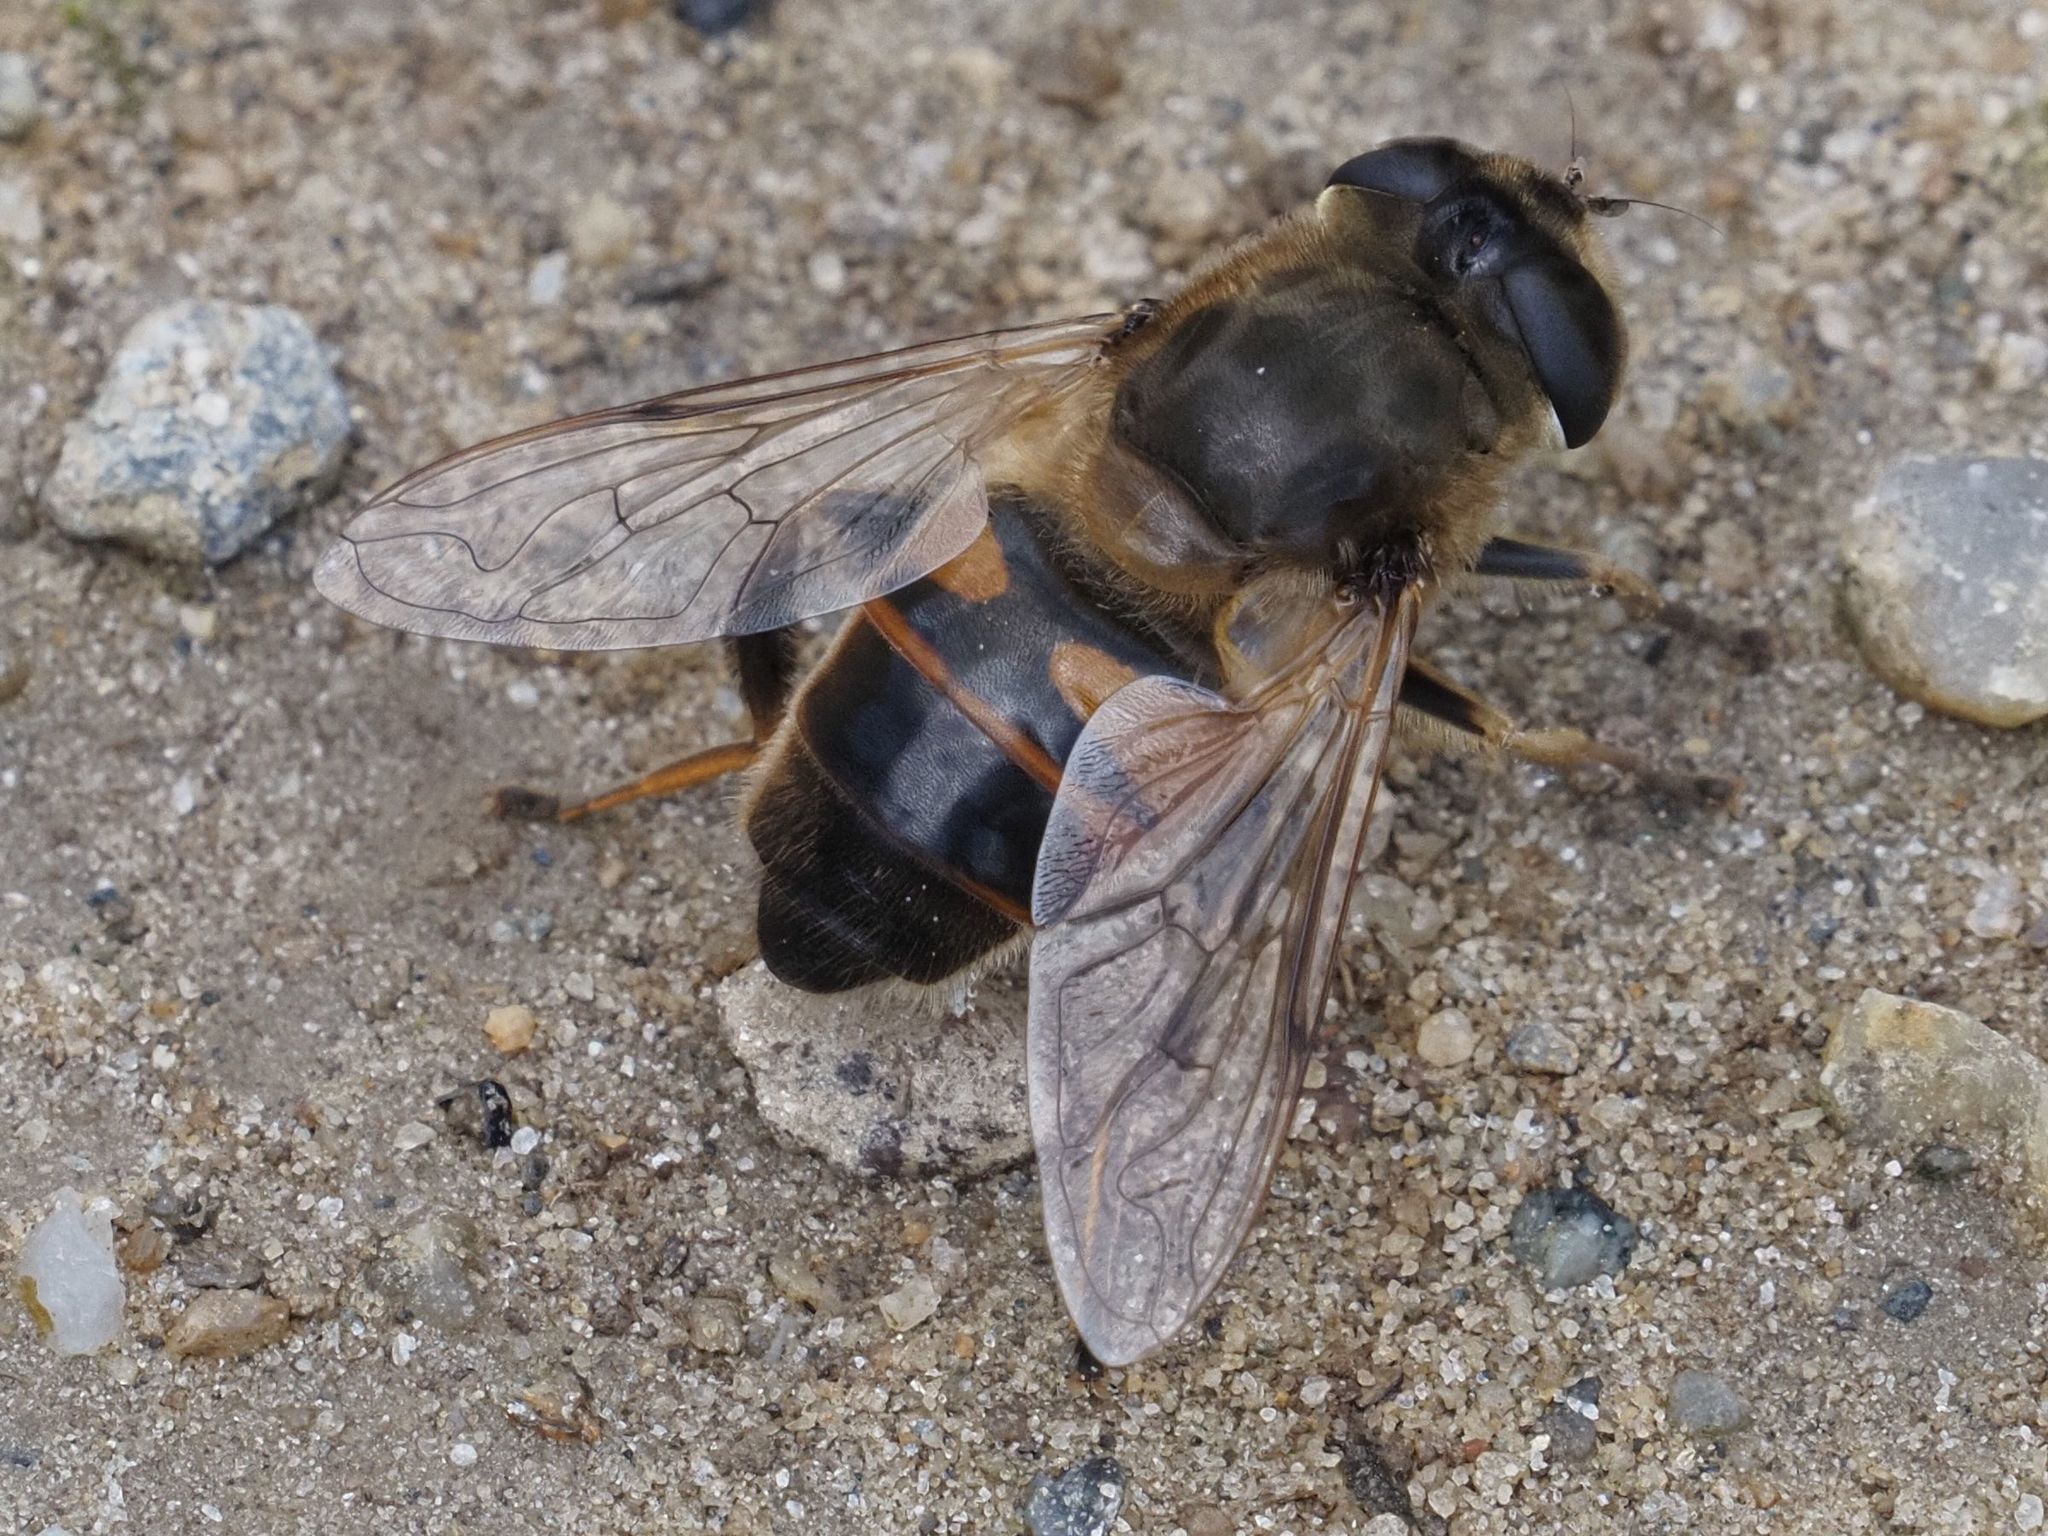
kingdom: Animalia
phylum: Arthropoda
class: Insecta
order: Diptera
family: Syrphidae
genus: Eristalis
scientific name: Eristalis tenax
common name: Drone fly
